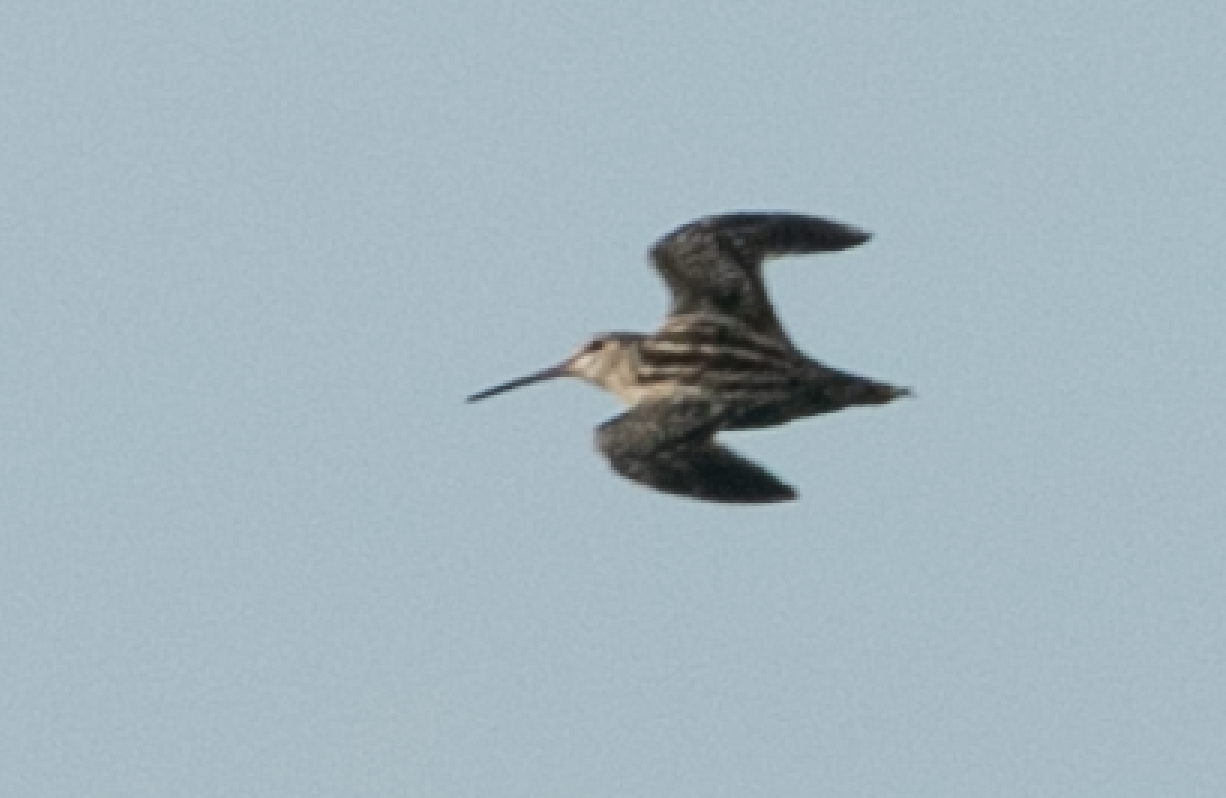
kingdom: Animalia
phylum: Chordata
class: Aves
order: Charadriiformes
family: Scolopacidae
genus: Gallinago
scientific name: Gallinago gallinago
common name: Common snipe
